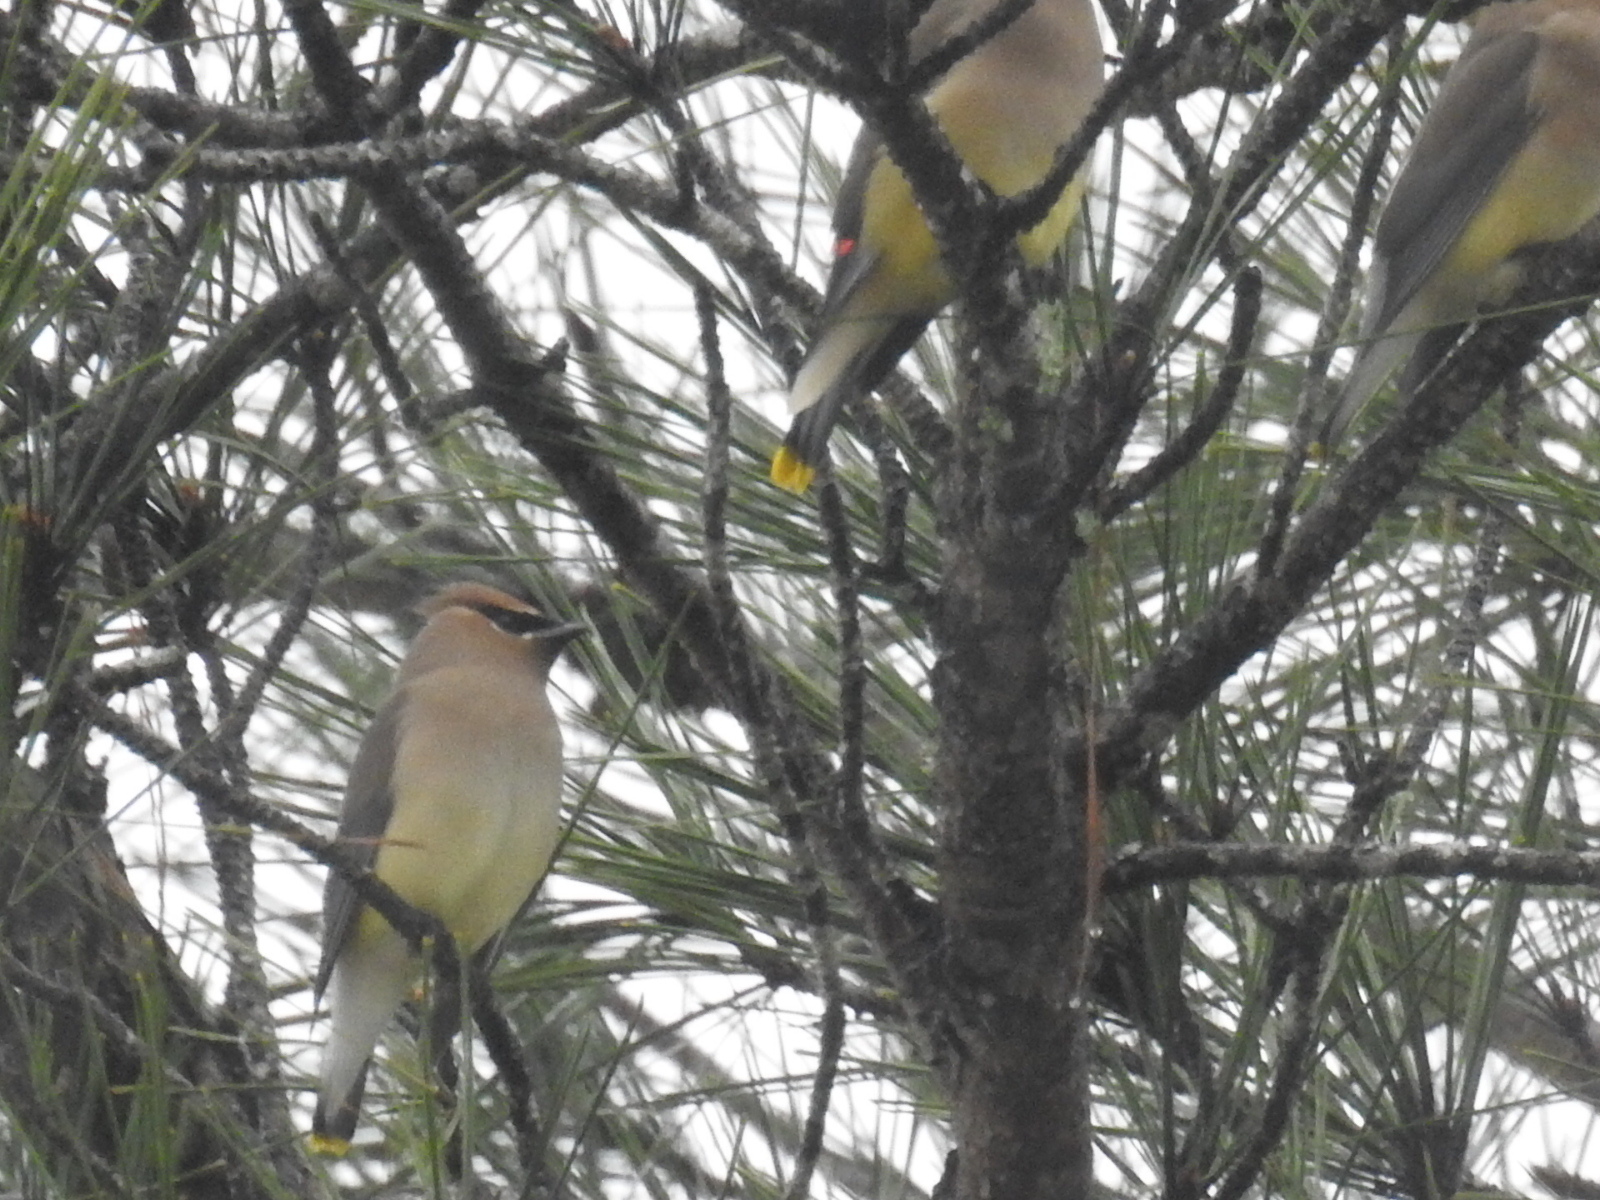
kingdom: Animalia
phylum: Chordata
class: Aves
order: Passeriformes
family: Bombycillidae
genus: Bombycilla
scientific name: Bombycilla cedrorum
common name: Cedar waxwing
